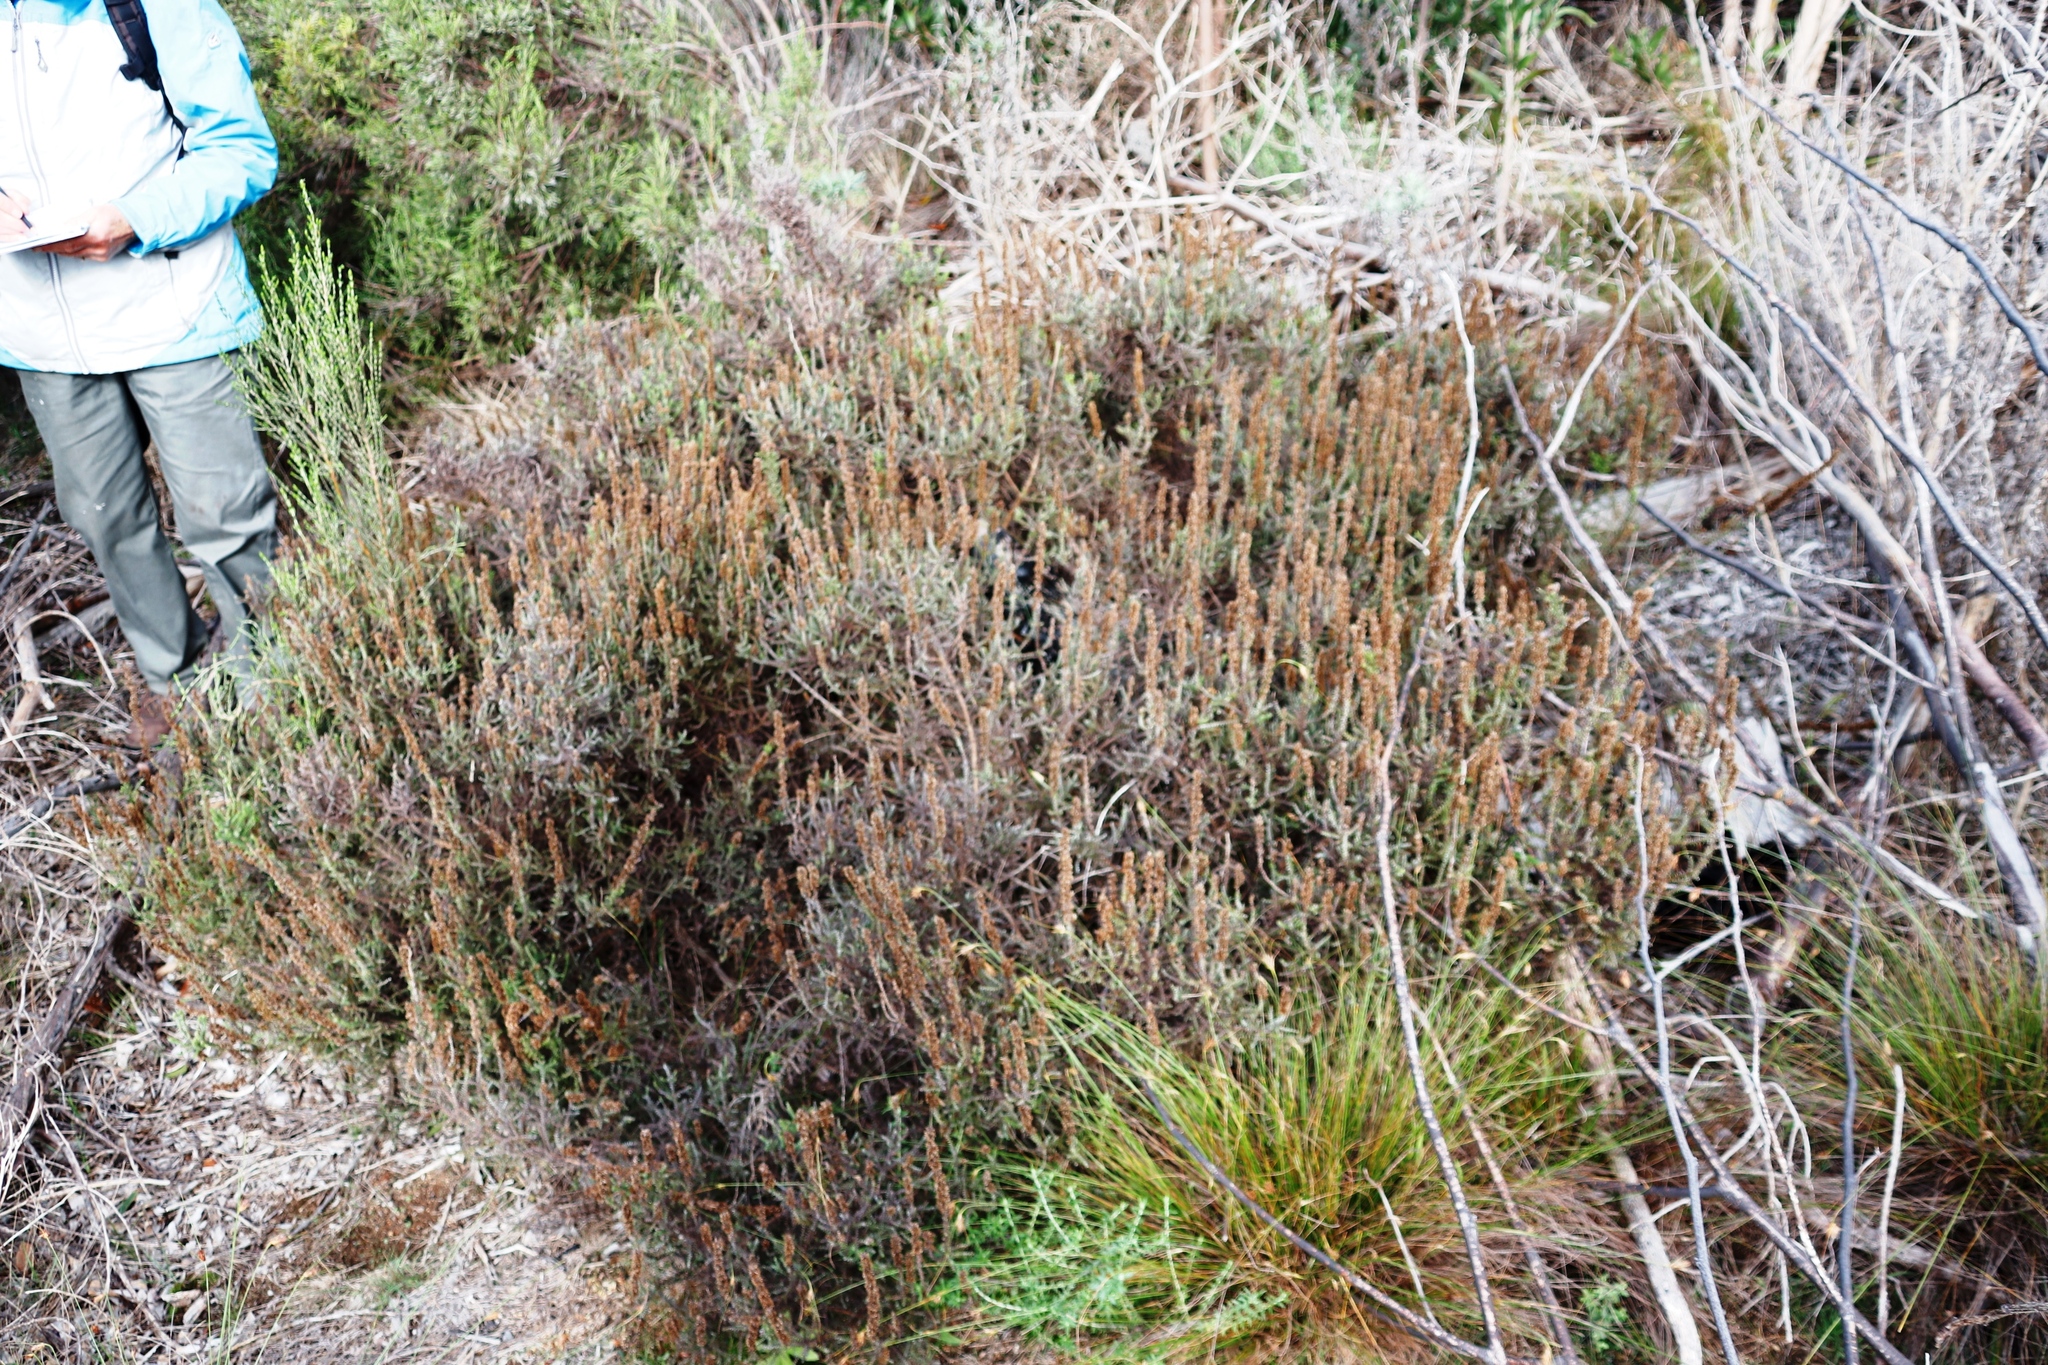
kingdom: Plantae
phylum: Tracheophyta
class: Magnoliopsida
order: Asterales
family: Asteraceae
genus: Seriphium
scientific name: Seriphium cinereum
